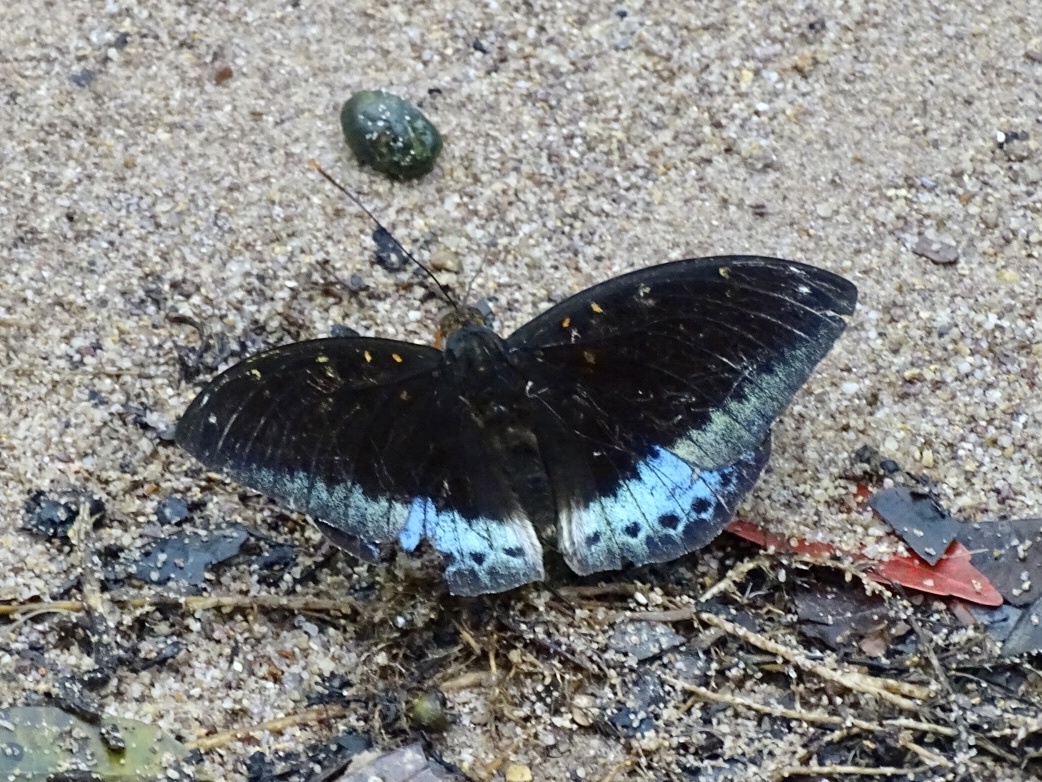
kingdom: Animalia
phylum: Arthropoda
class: Insecta
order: Lepidoptera
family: Nymphalidae
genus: Lexias
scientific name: Lexias pardalis
